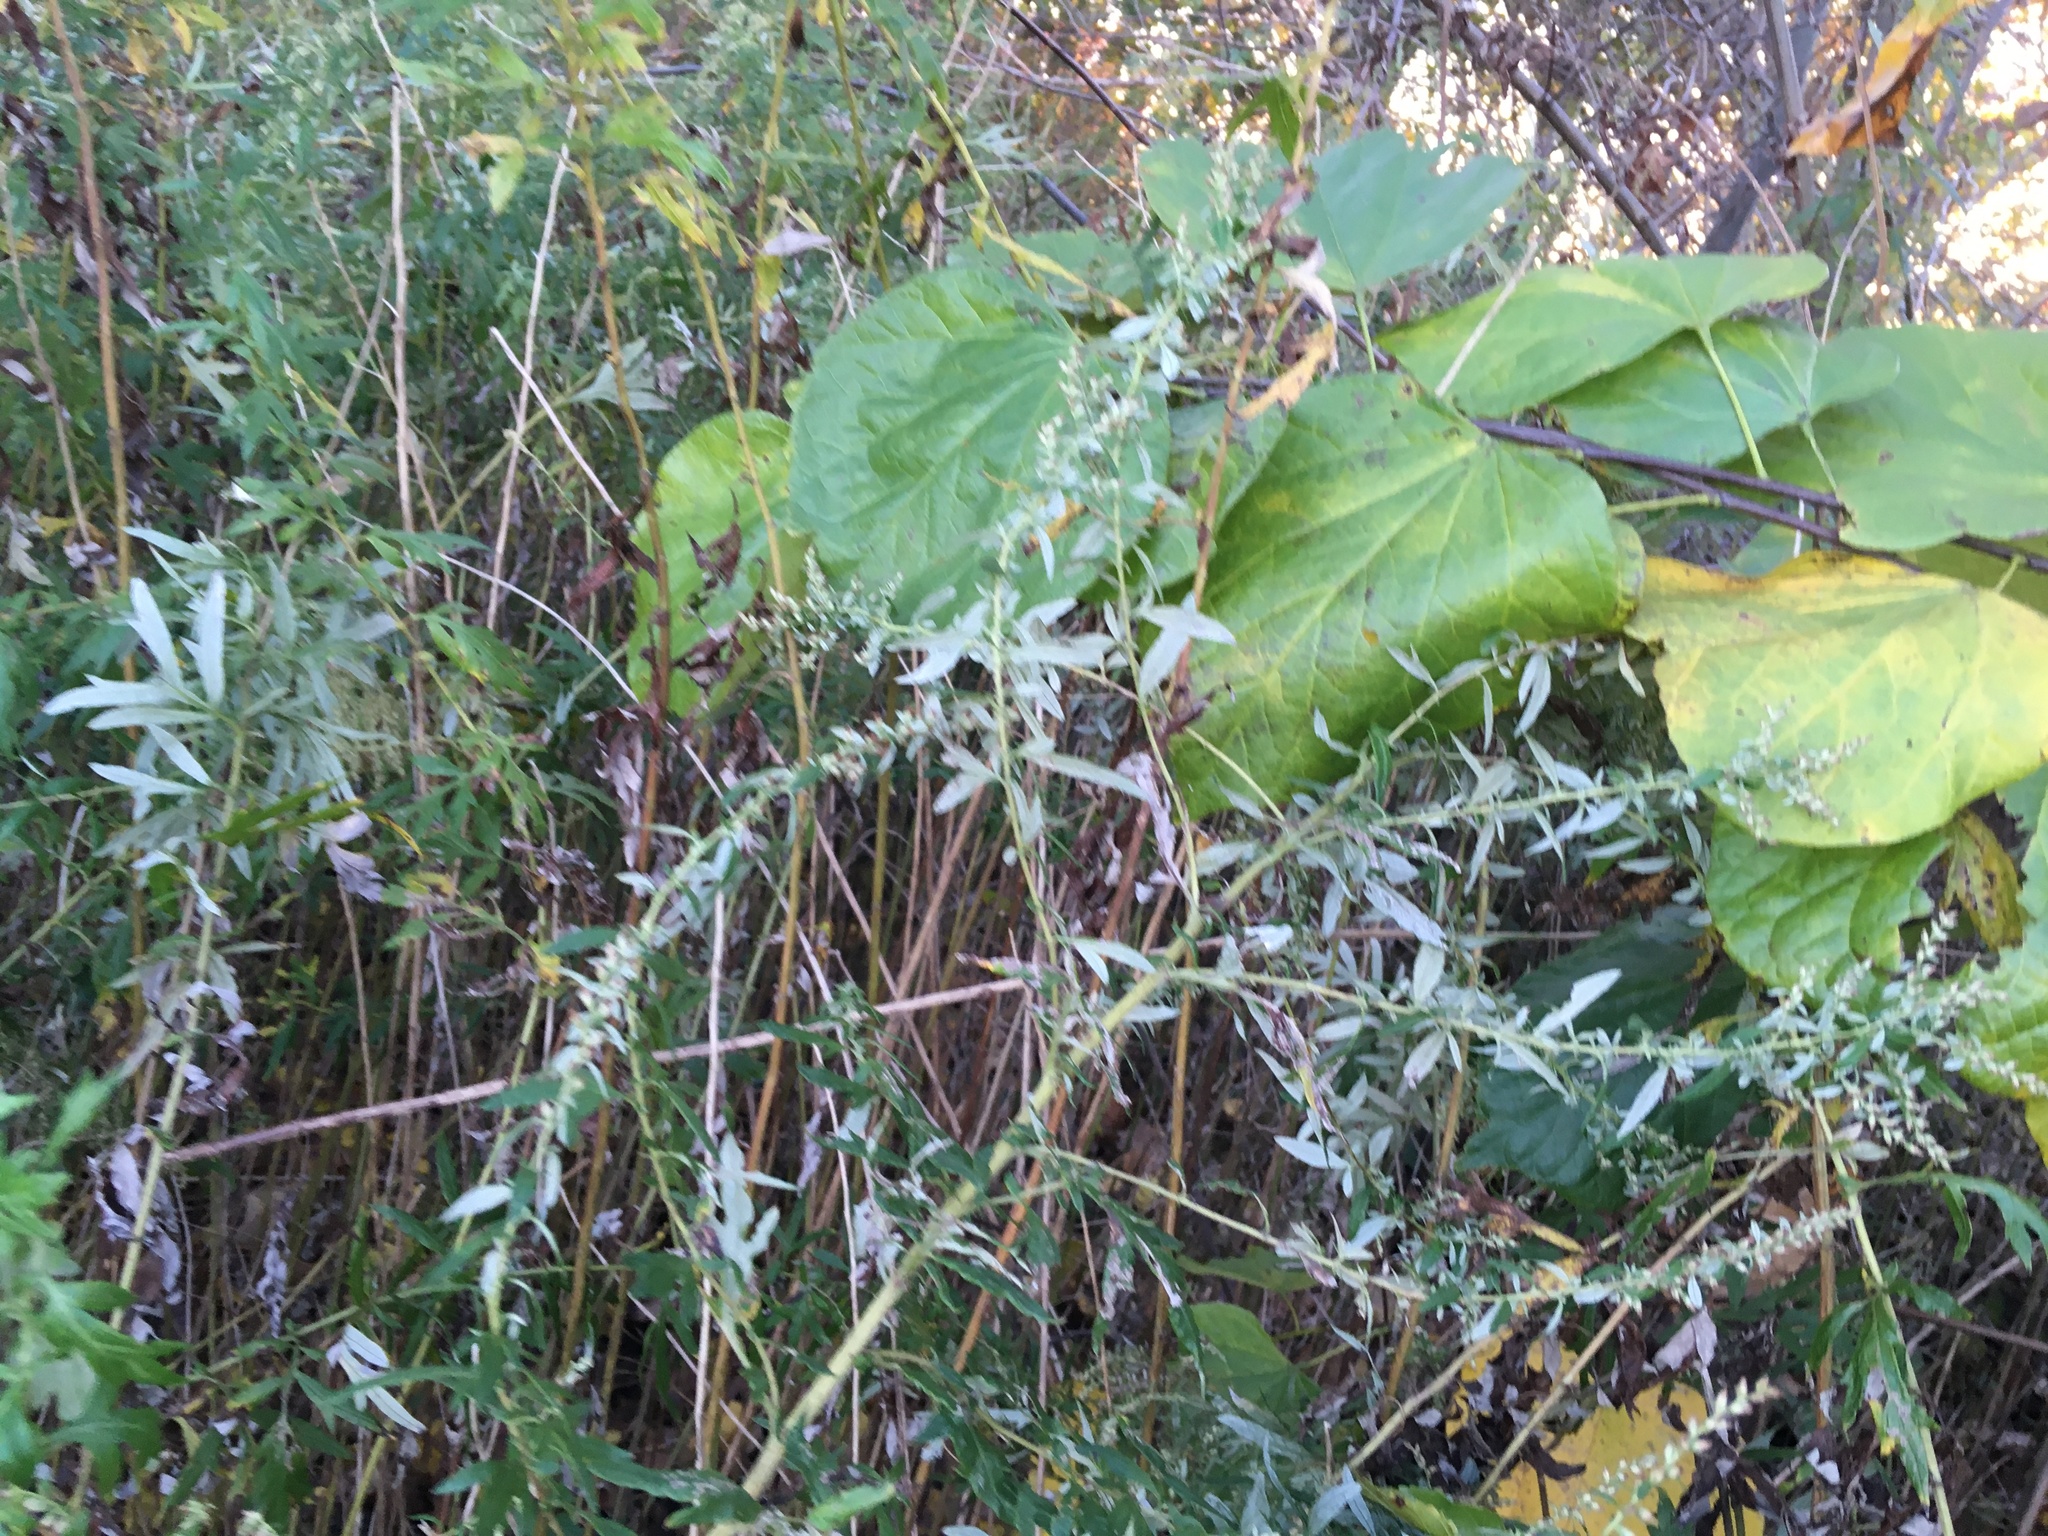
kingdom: Plantae
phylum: Tracheophyta
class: Magnoliopsida
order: Asterales
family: Asteraceae
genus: Artemisia
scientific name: Artemisia vulgaris
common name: Mugwort
